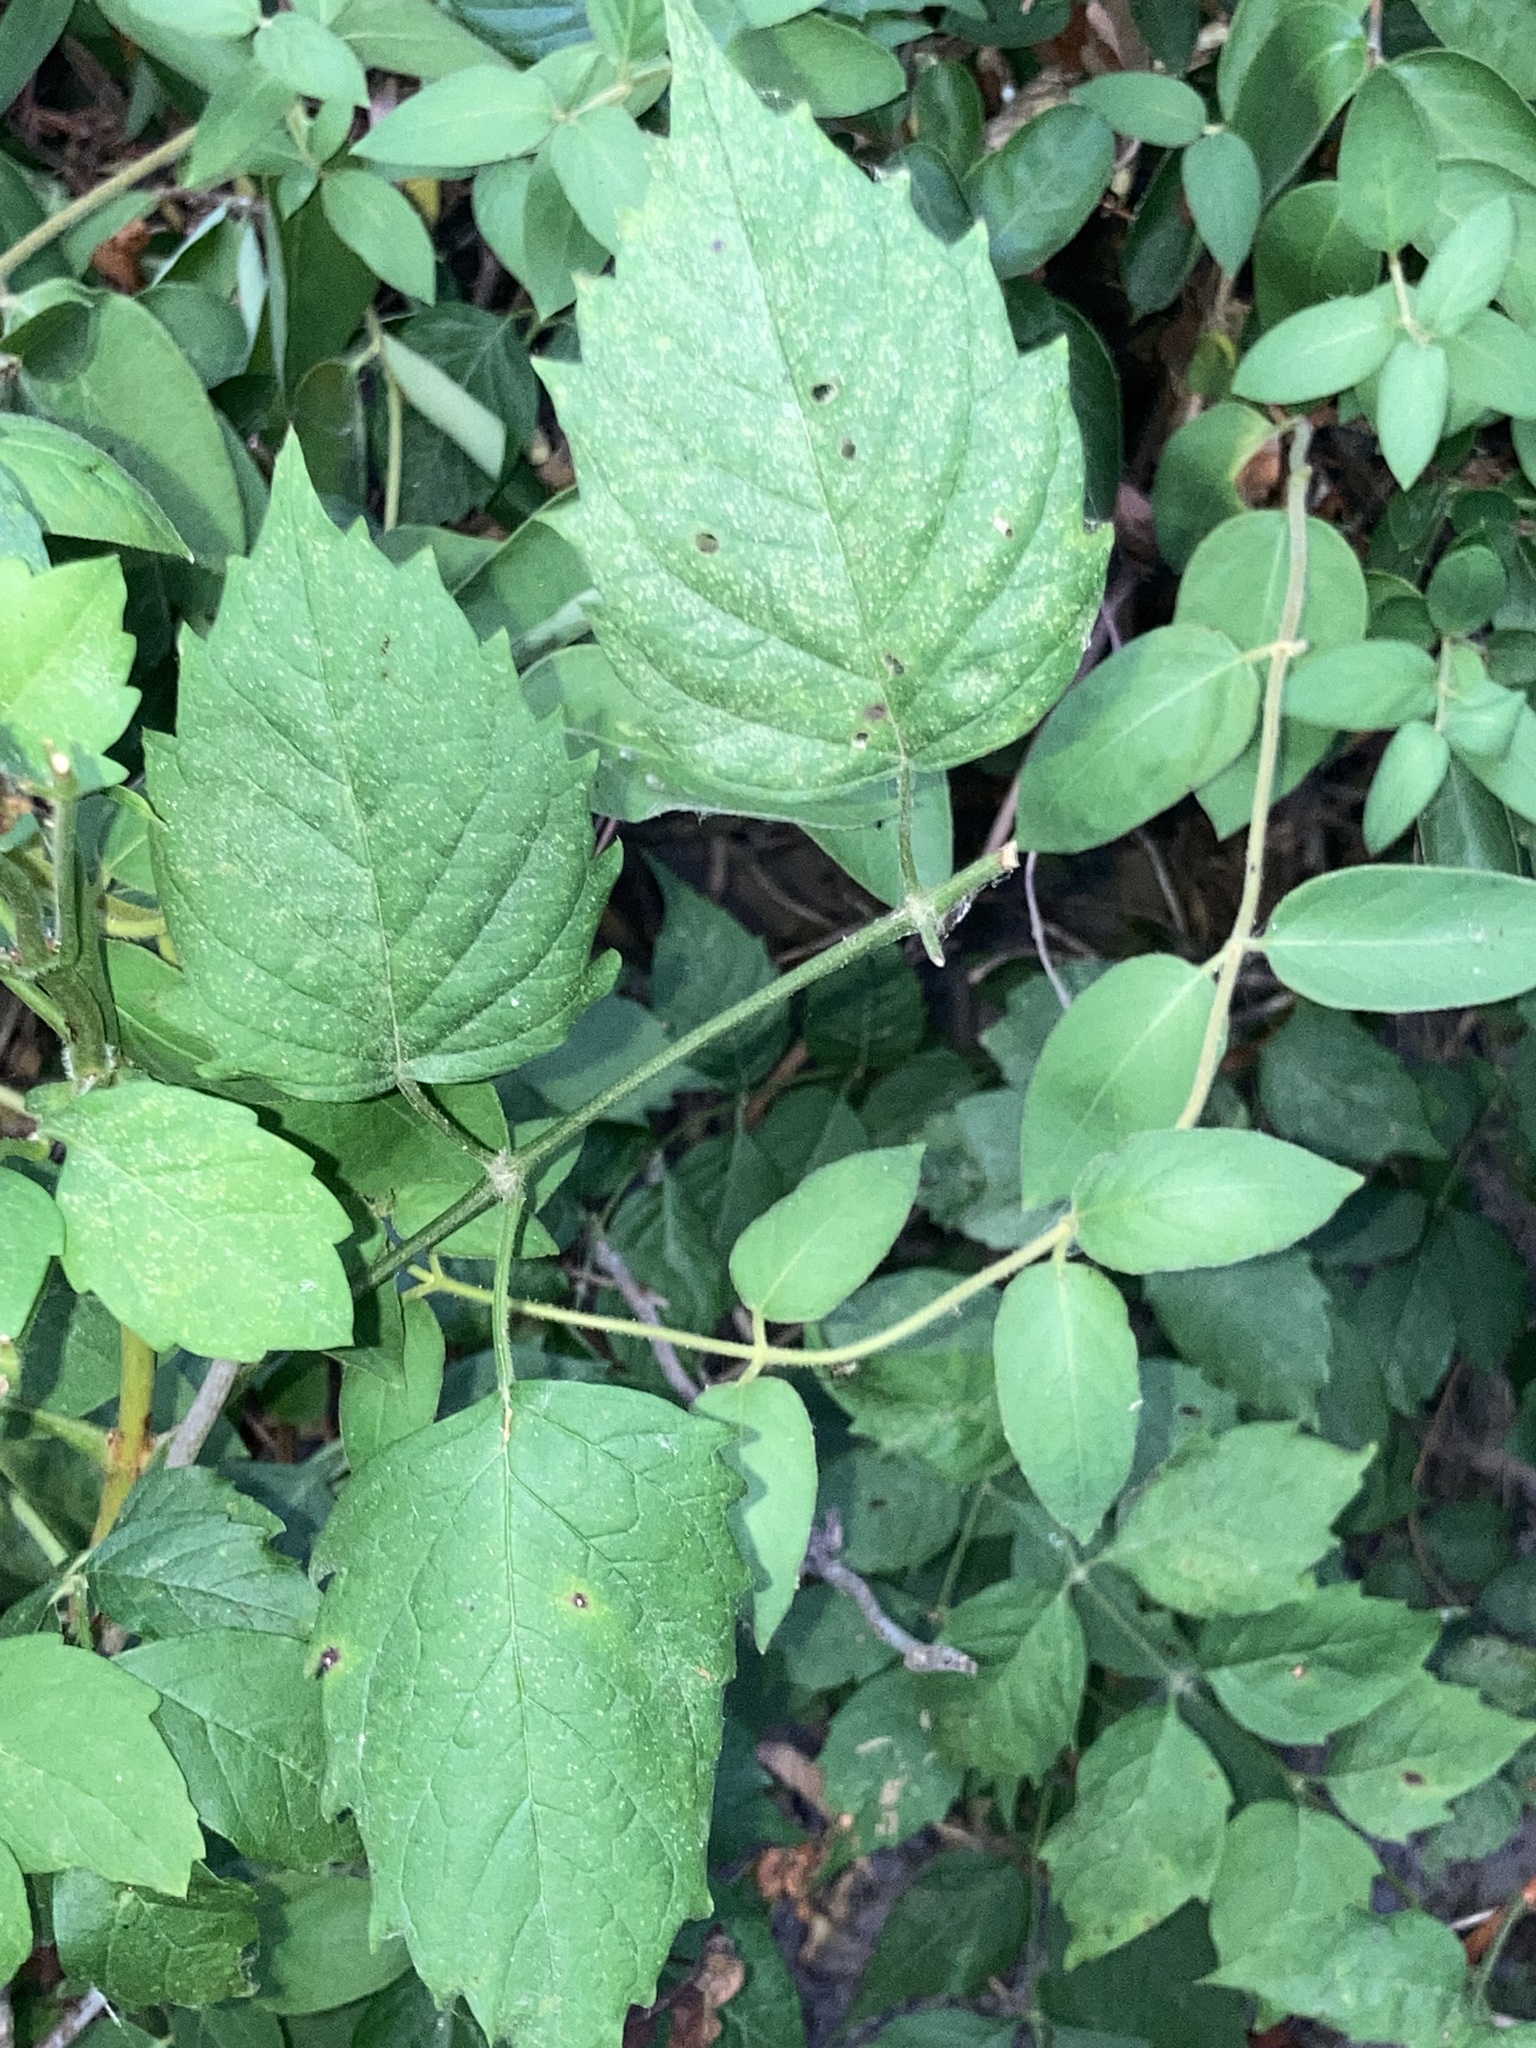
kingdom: Plantae
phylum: Tracheophyta
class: Magnoliopsida
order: Lamiales
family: Bignoniaceae
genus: Campsis
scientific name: Campsis radicans
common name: Trumpet-creeper
